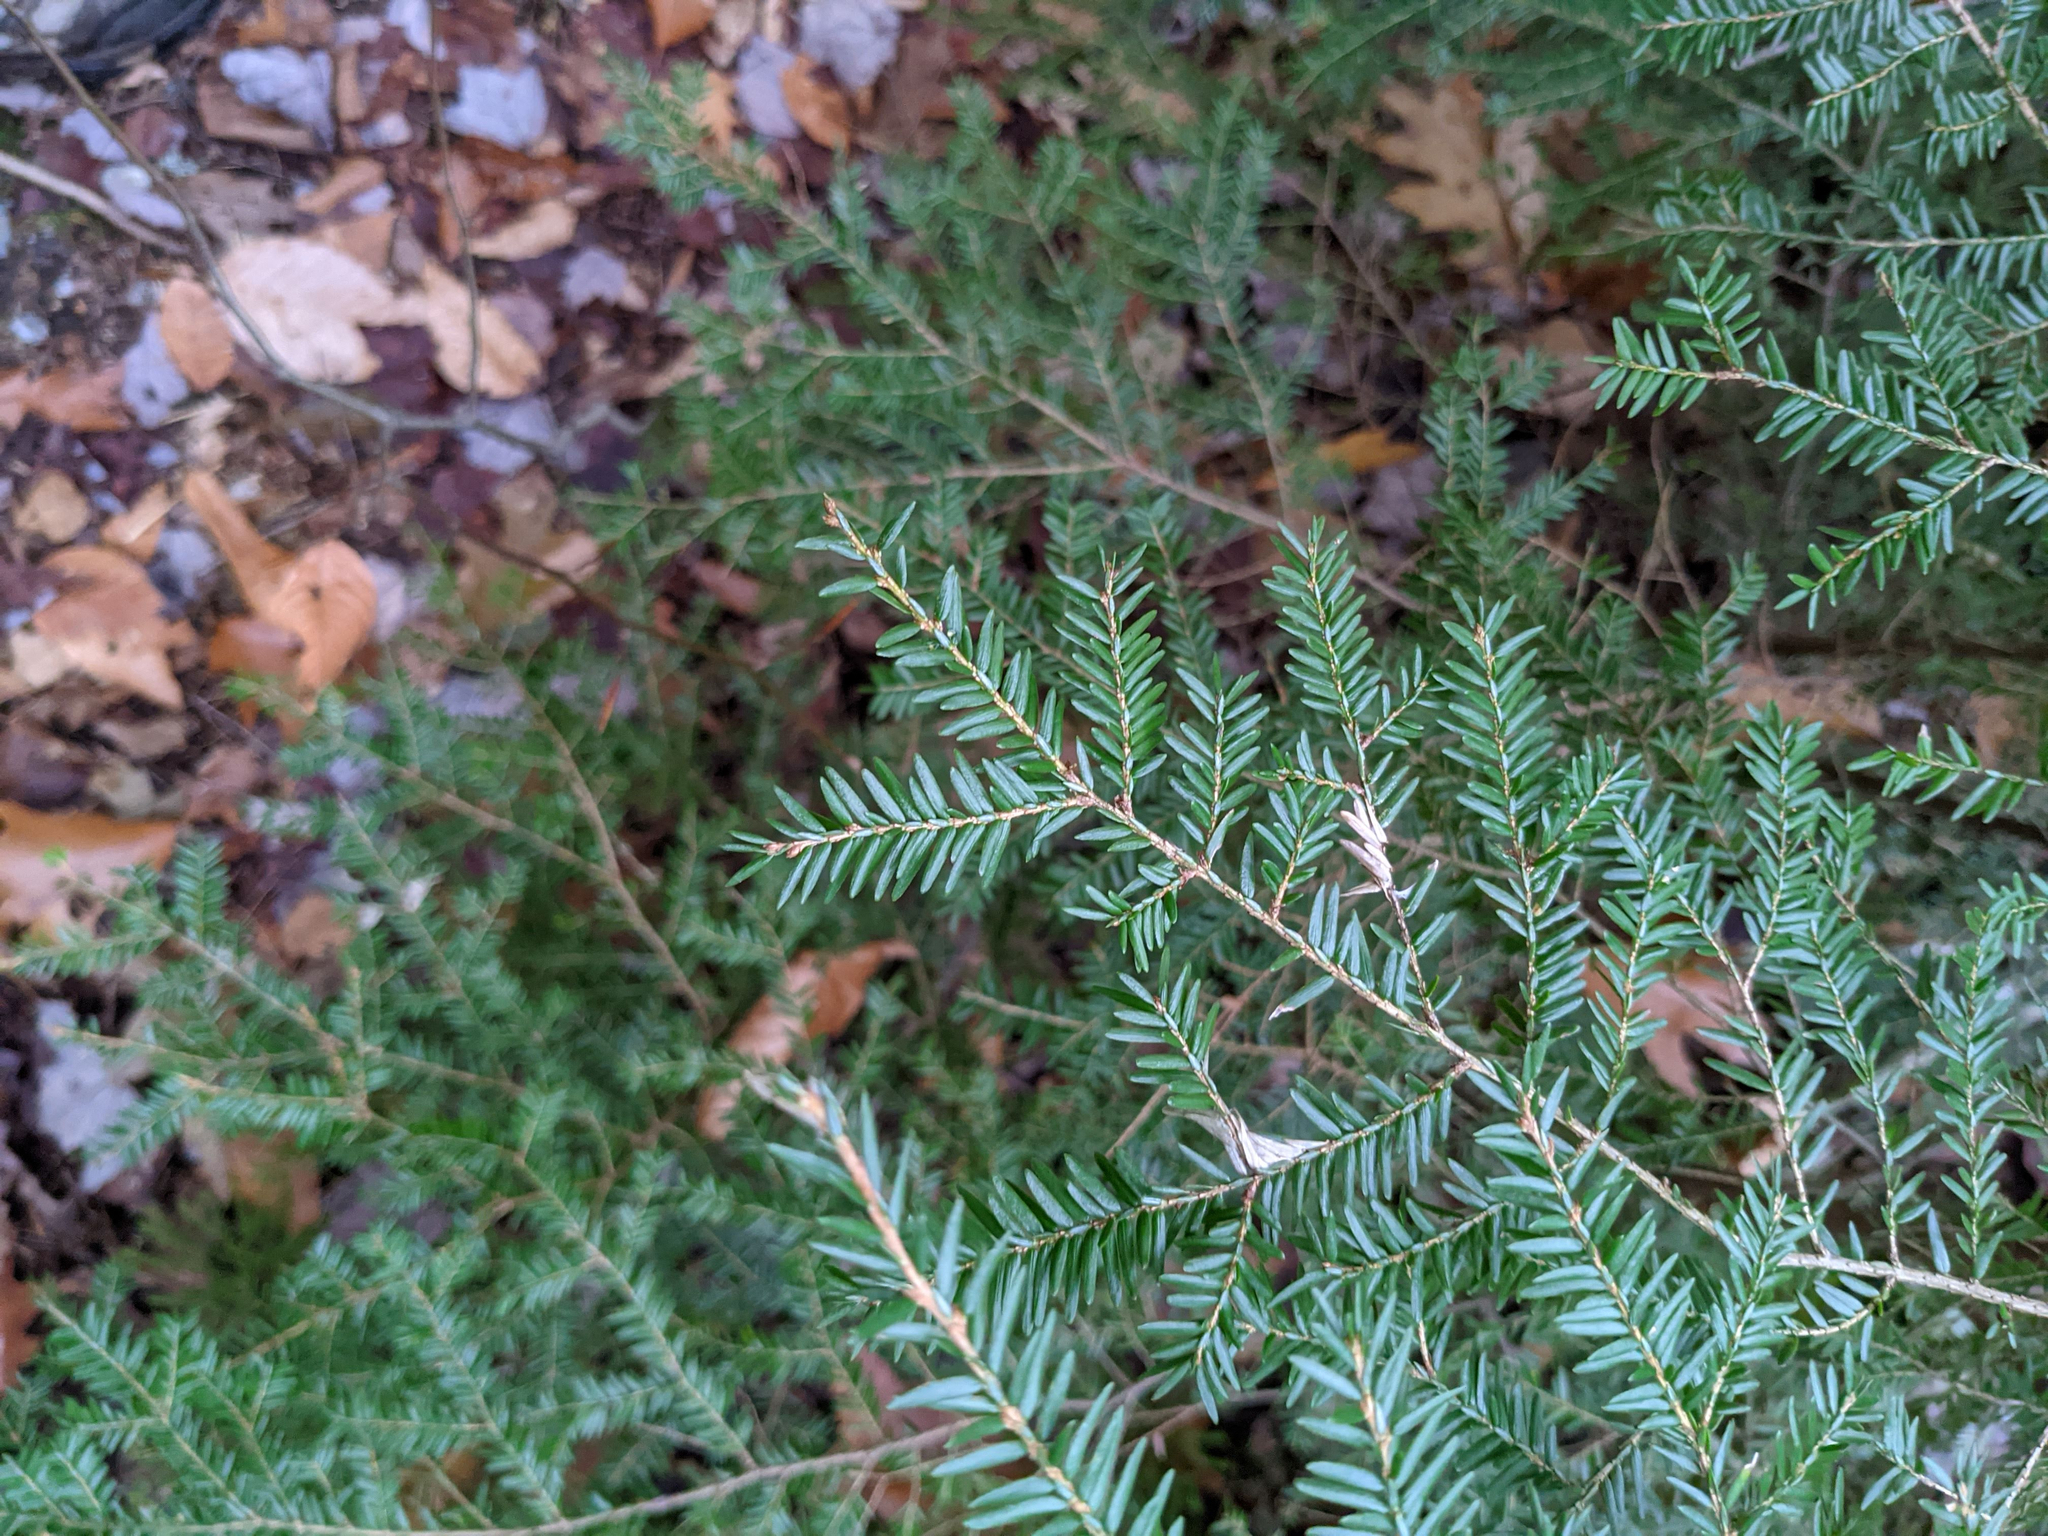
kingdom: Plantae
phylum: Tracheophyta
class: Pinopsida
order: Pinales
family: Pinaceae
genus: Tsuga
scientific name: Tsuga canadensis
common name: Eastern hemlock
